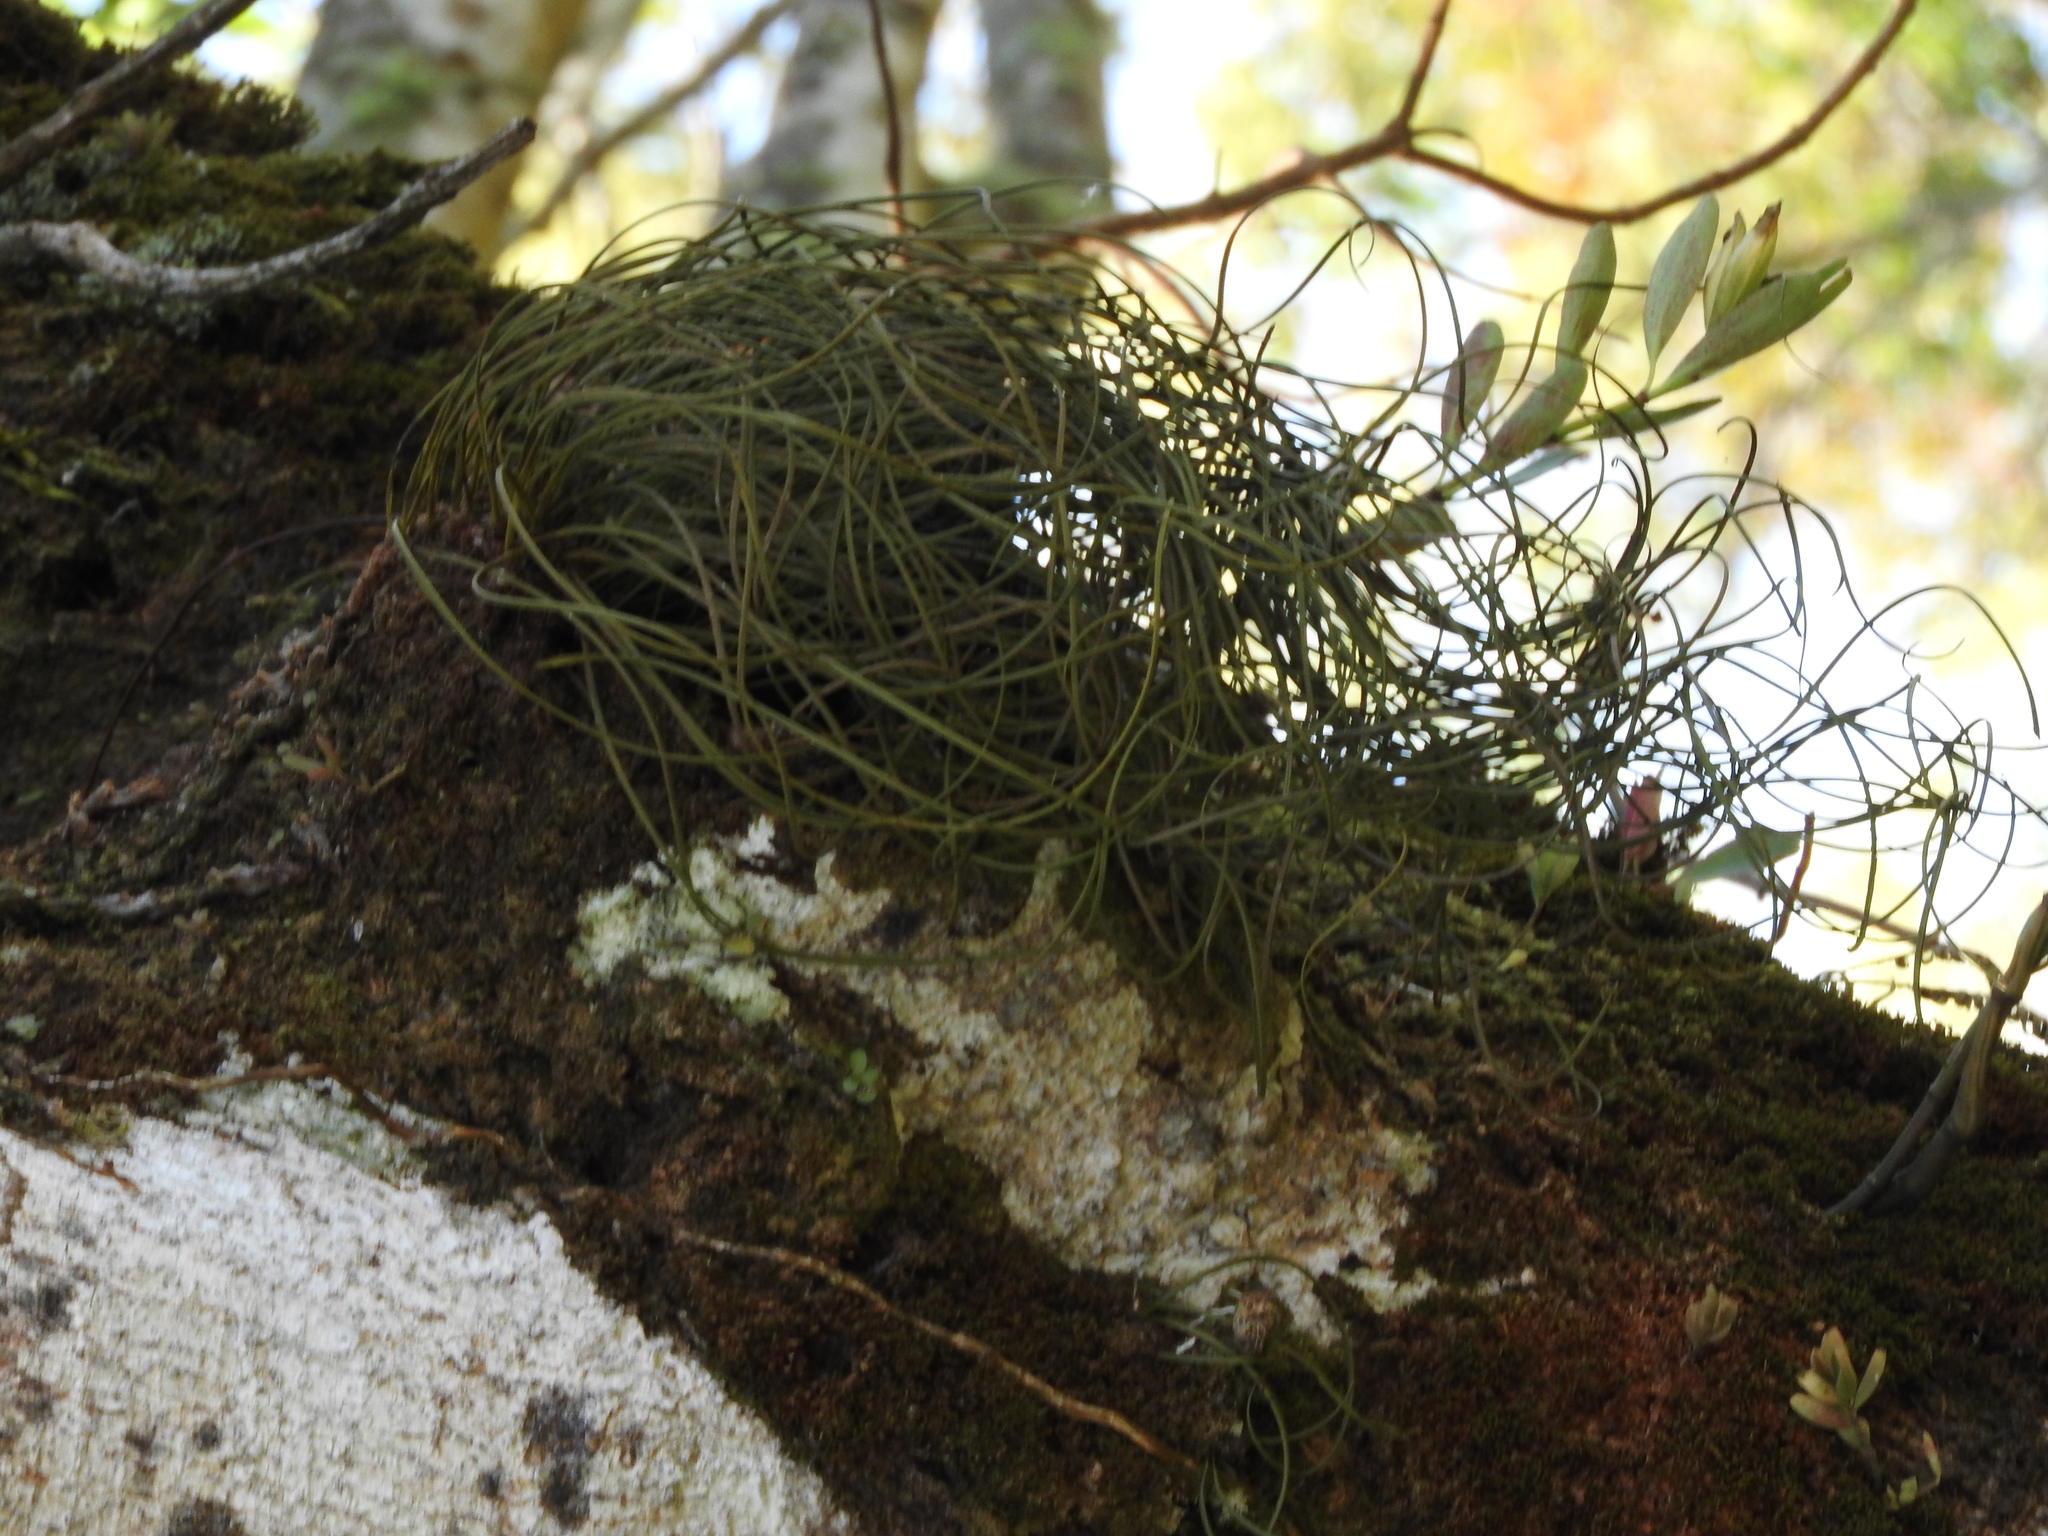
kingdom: Plantae
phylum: Tracheophyta
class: Polypodiopsida
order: Polypodiales
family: Polypodiaceae
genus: Campyloneurum
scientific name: Campyloneurum angustifolium
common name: Narrow-leaf strap fern
